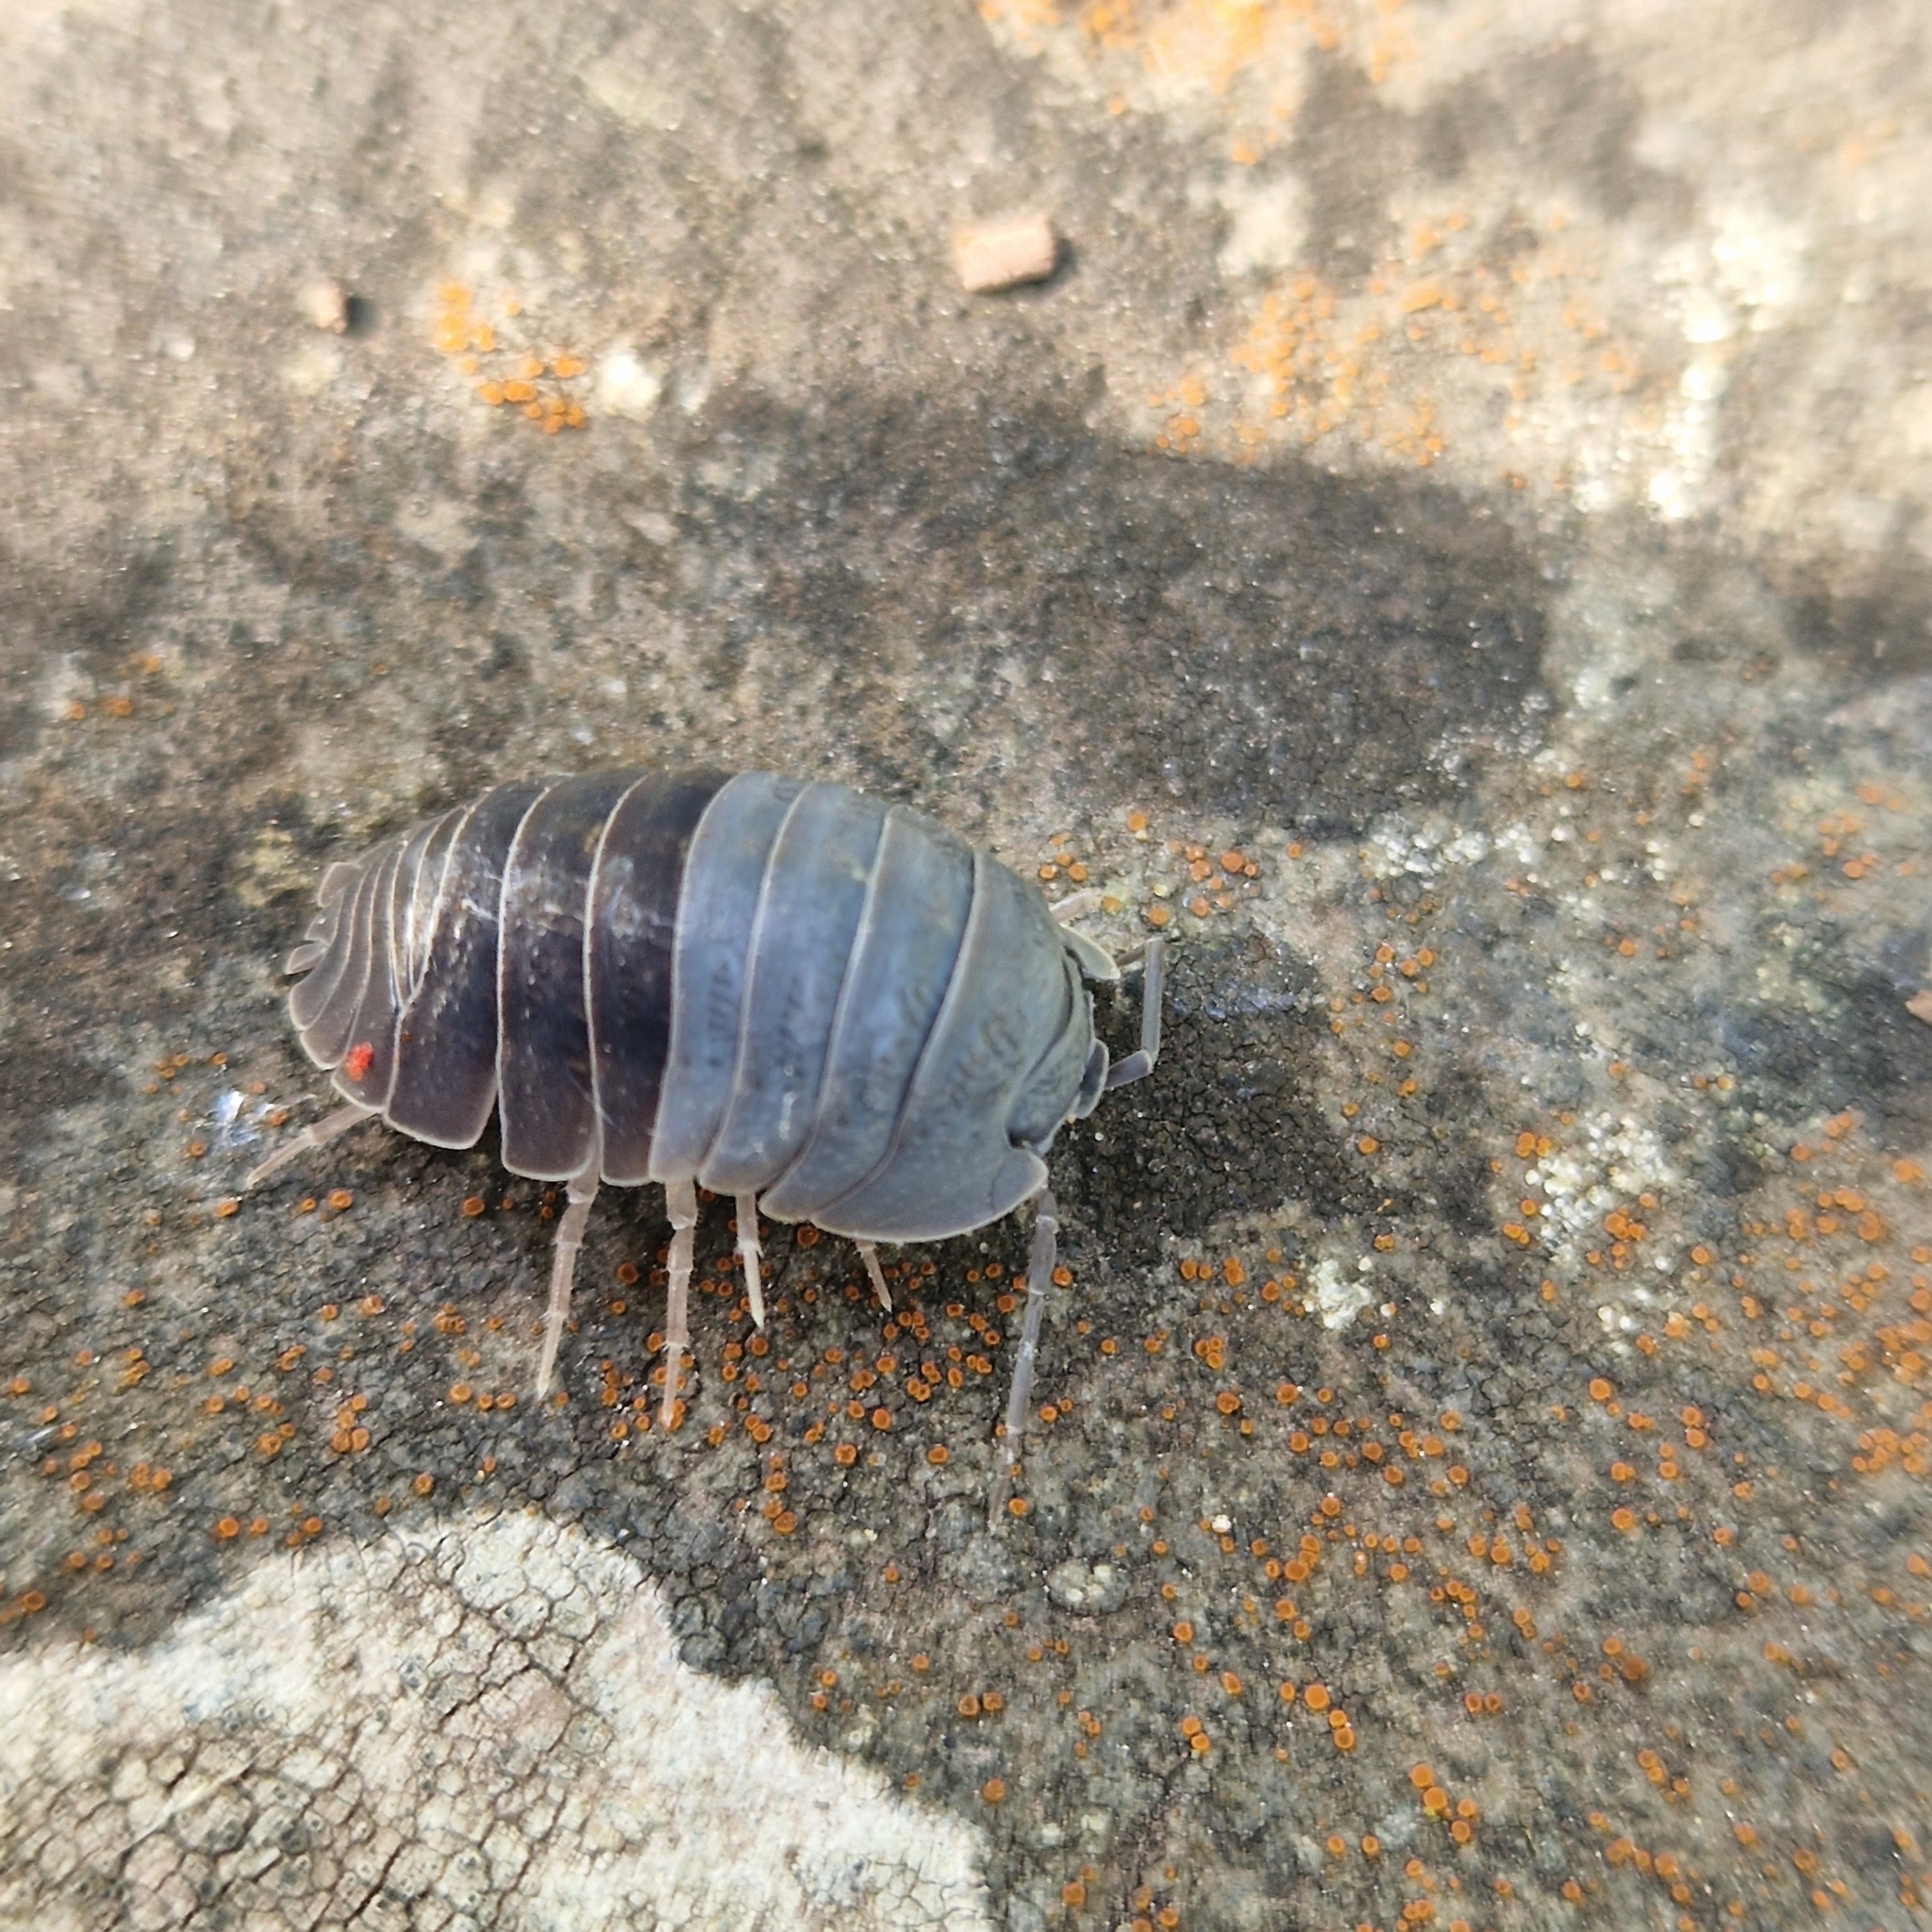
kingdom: Animalia
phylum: Arthropoda
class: Malacostraca
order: Isopoda
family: Armadillidiidae
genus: Armadillidium
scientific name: Armadillidium depressum
